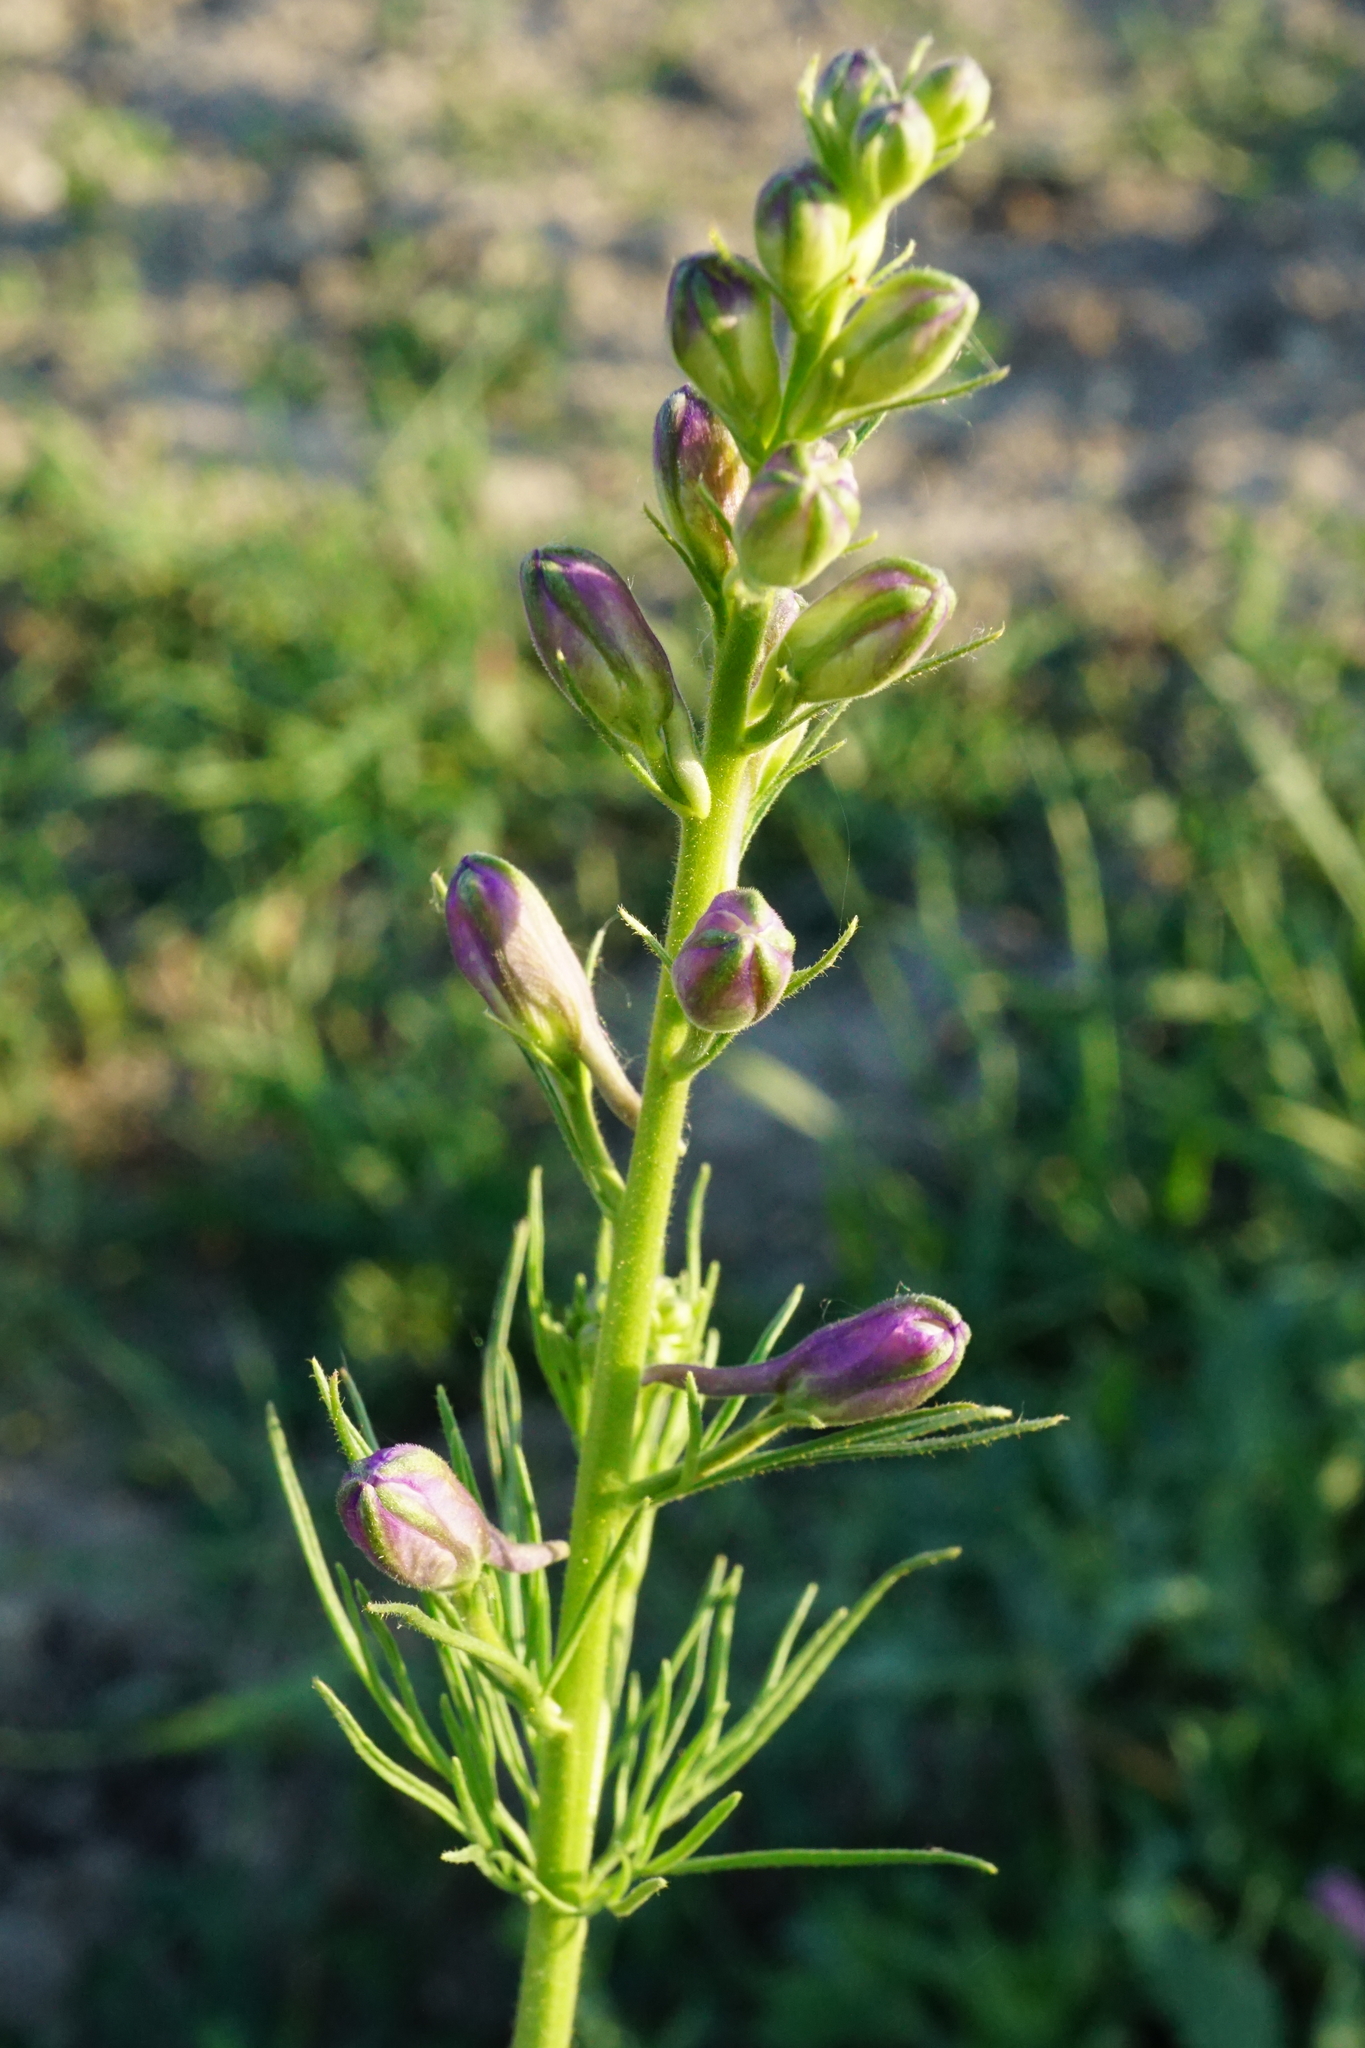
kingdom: Plantae
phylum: Tracheophyta
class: Magnoliopsida
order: Ranunculales
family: Ranunculaceae
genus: Delphinium
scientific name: Delphinium hispanicum
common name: Oriental knight's-spur
